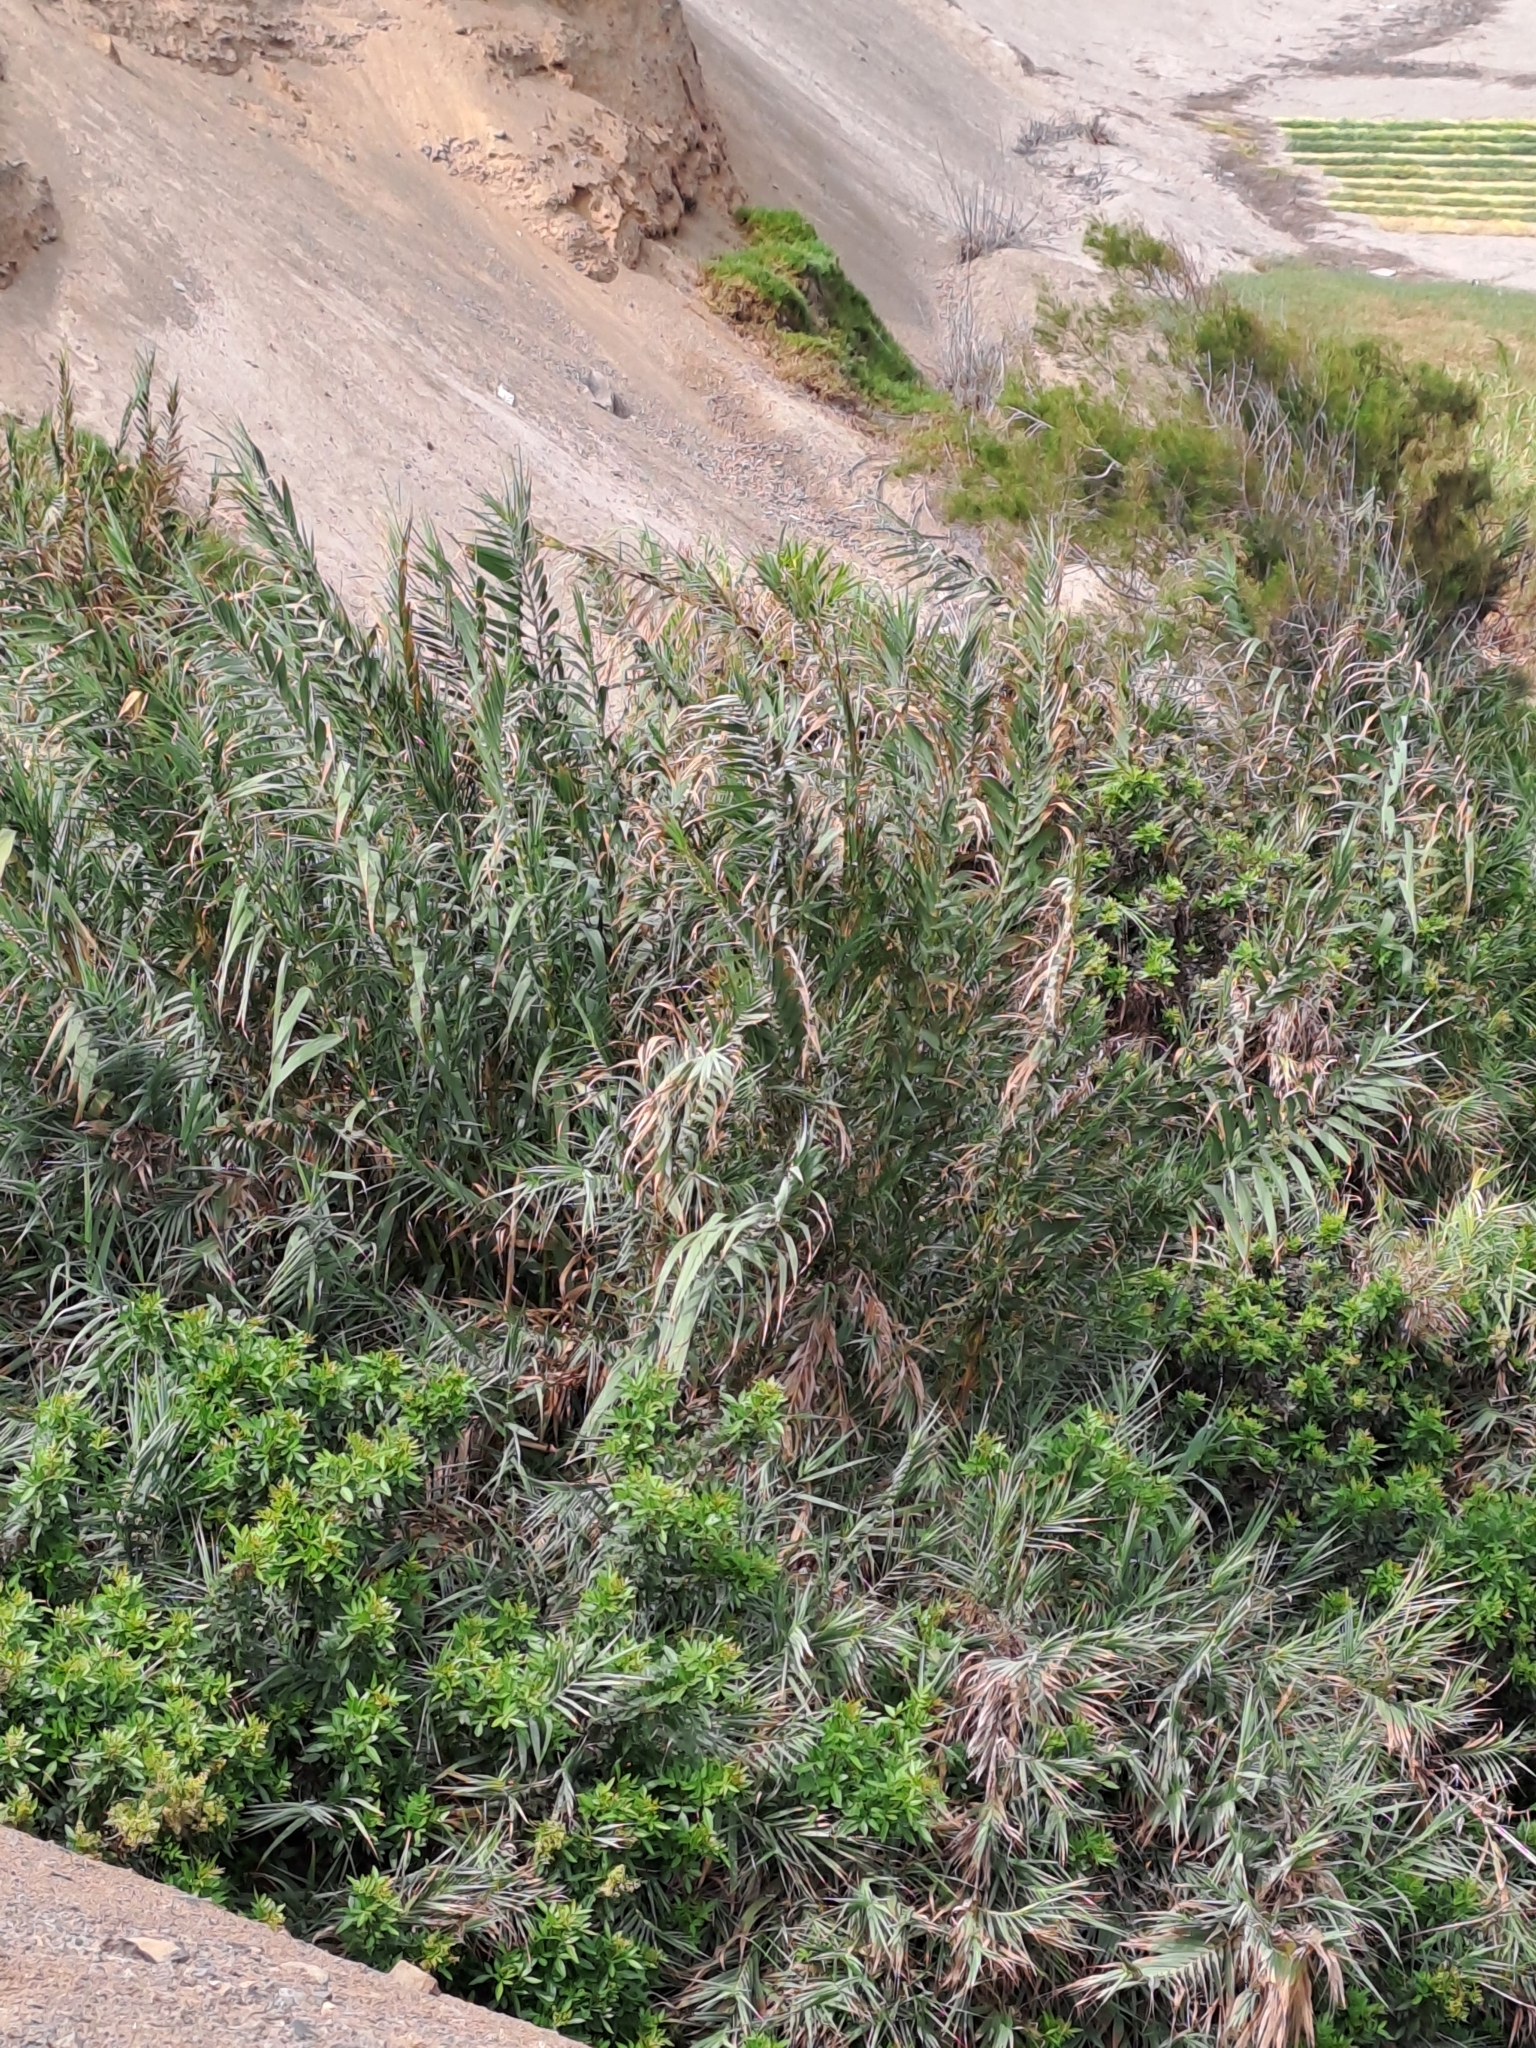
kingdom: Plantae
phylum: Tracheophyta
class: Liliopsida
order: Poales
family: Poaceae
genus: Arundo
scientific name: Arundo donax
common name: Giant reed
